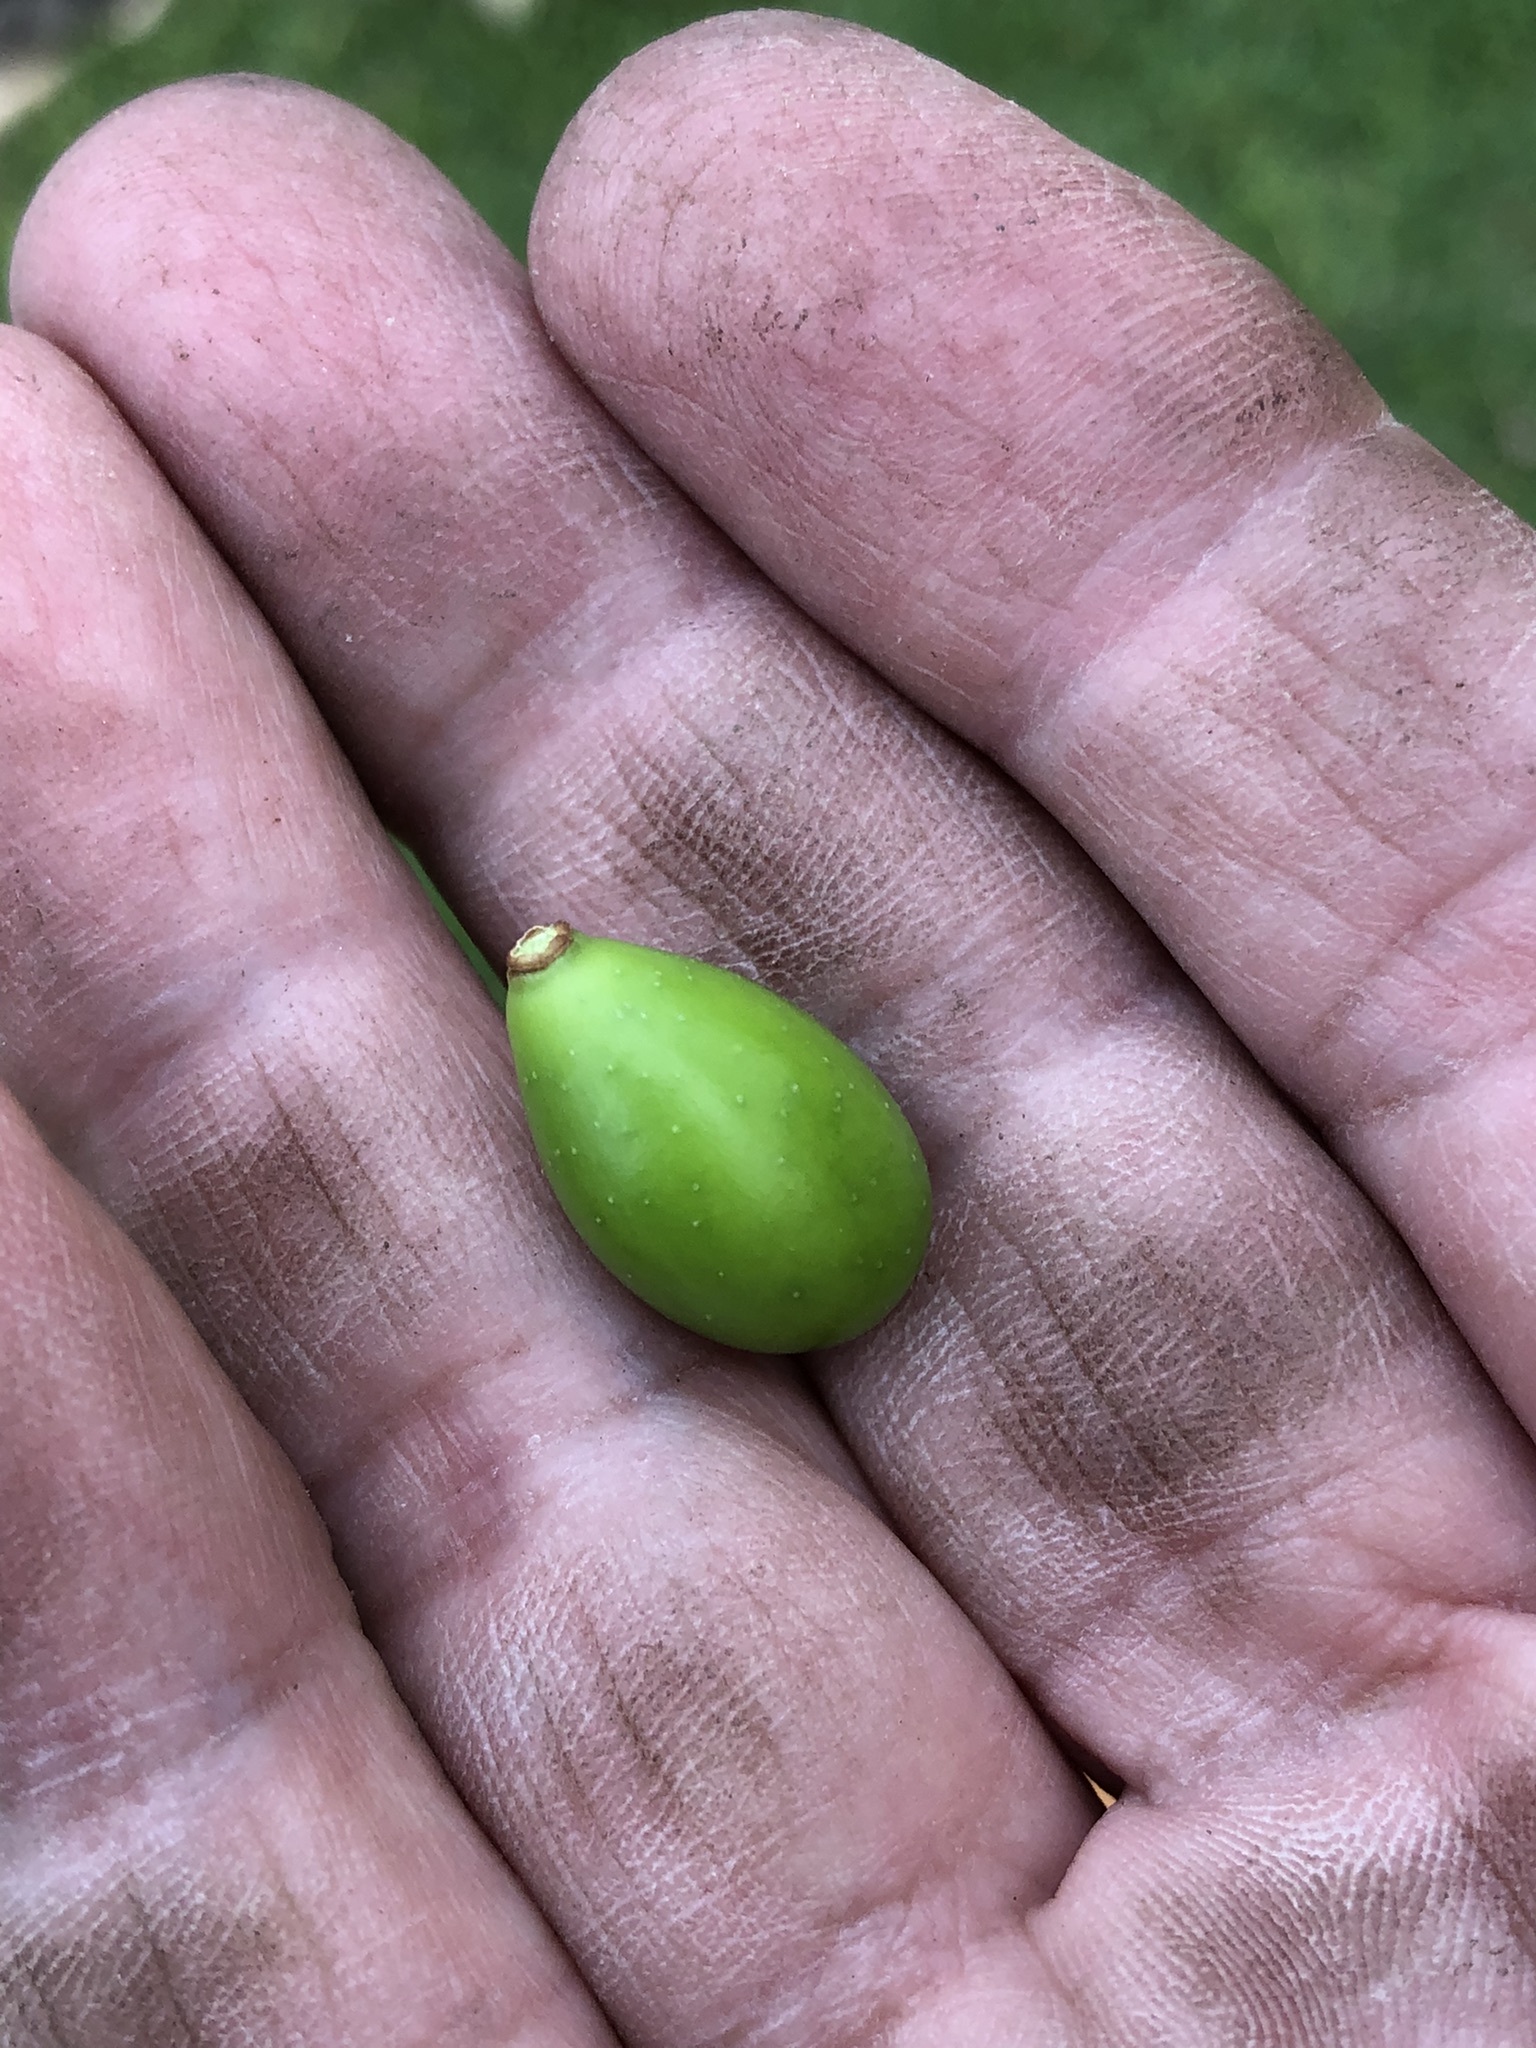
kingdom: Plantae
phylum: Tracheophyta
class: Magnoliopsida
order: Sapindales
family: Meliaceae
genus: Melia
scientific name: Melia azedarach
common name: Chinaberrytree
